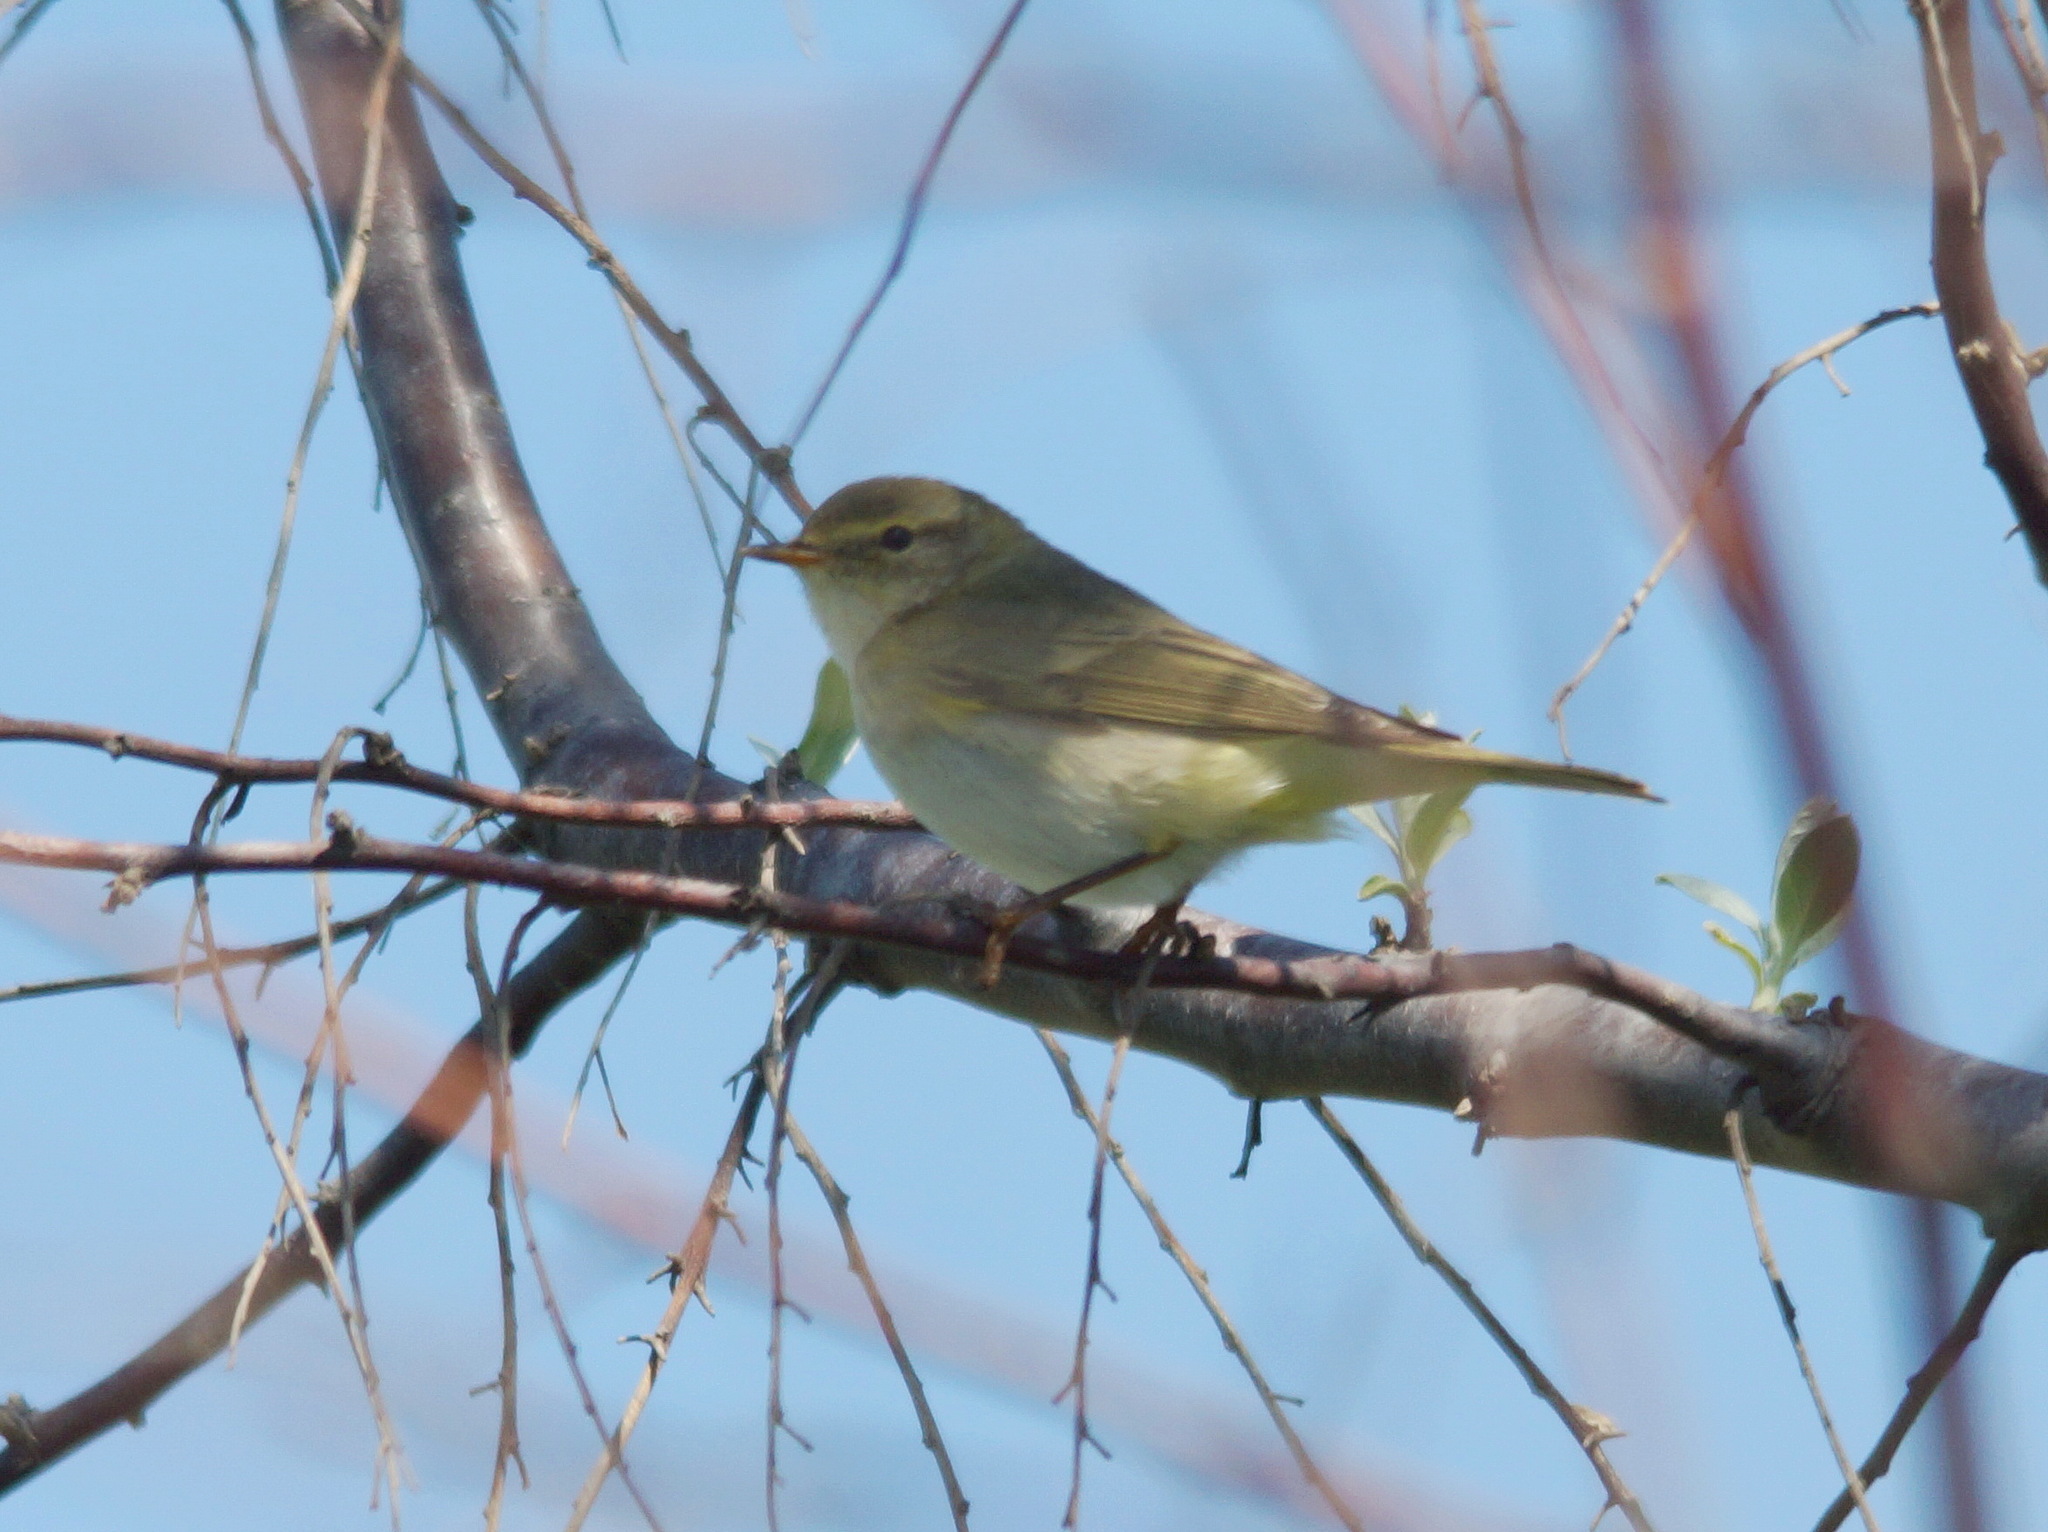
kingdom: Animalia
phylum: Chordata
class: Aves
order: Passeriformes
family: Phylloscopidae
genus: Phylloscopus
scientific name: Phylloscopus trochilus
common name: Willow warbler
